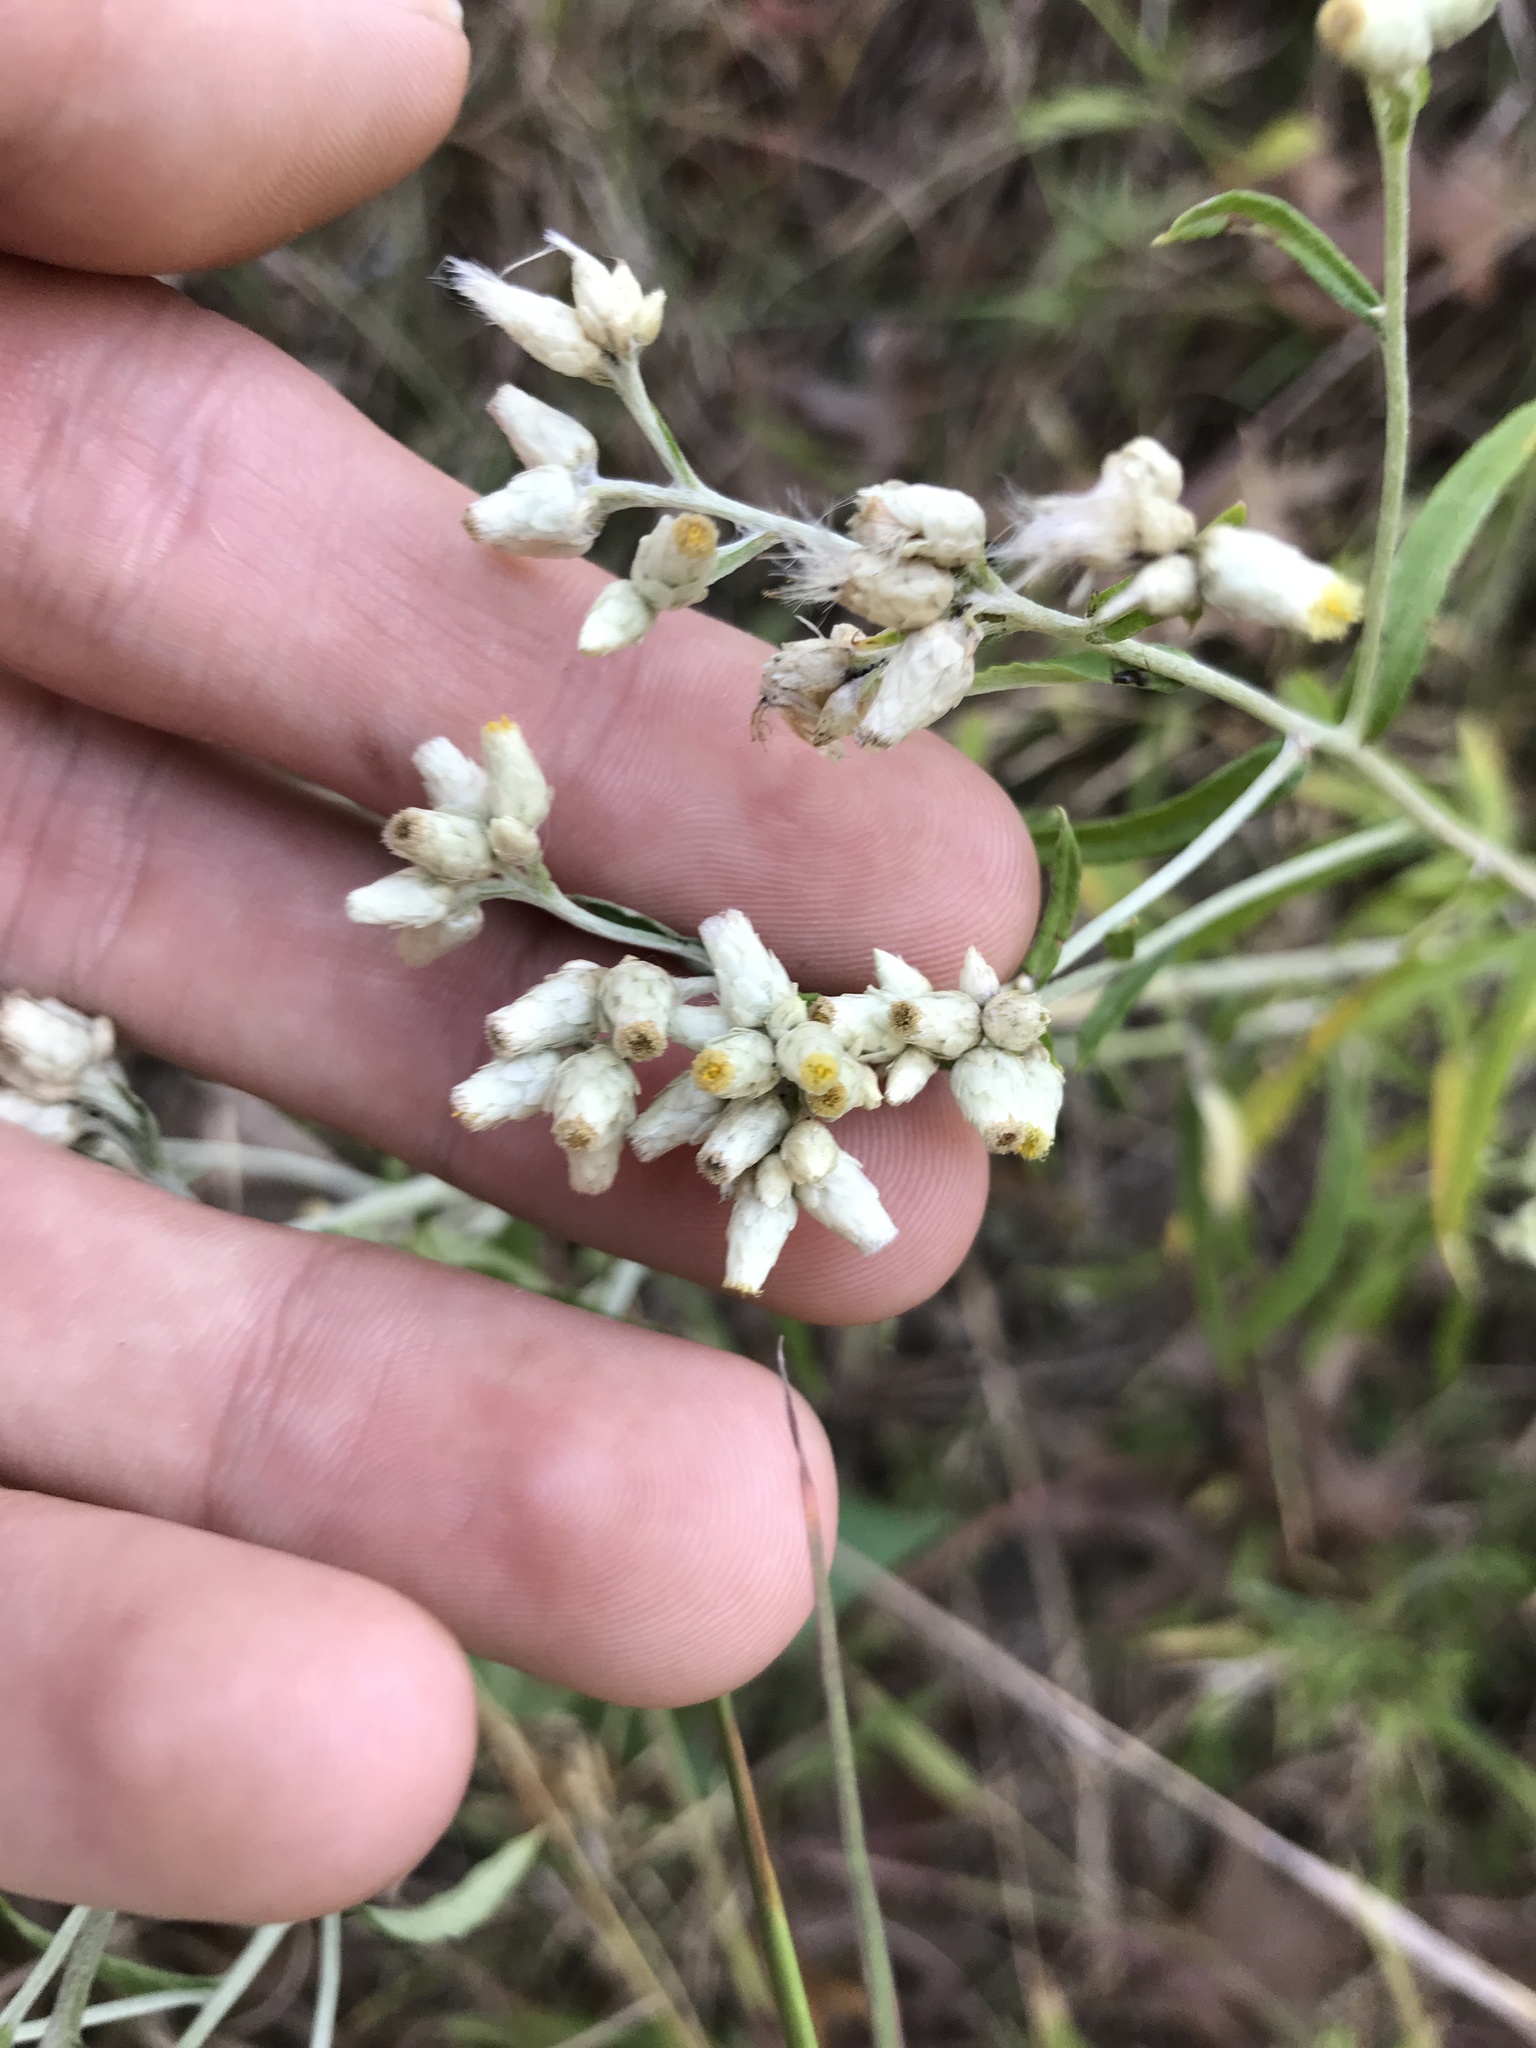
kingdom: Plantae
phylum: Tracheophyta
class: Magnoliopsida
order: Asterales
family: Asteraceae
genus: Pseudognaphalium
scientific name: Pseudognaphalium obtusifolium
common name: Eastern rabbit-tobacco
